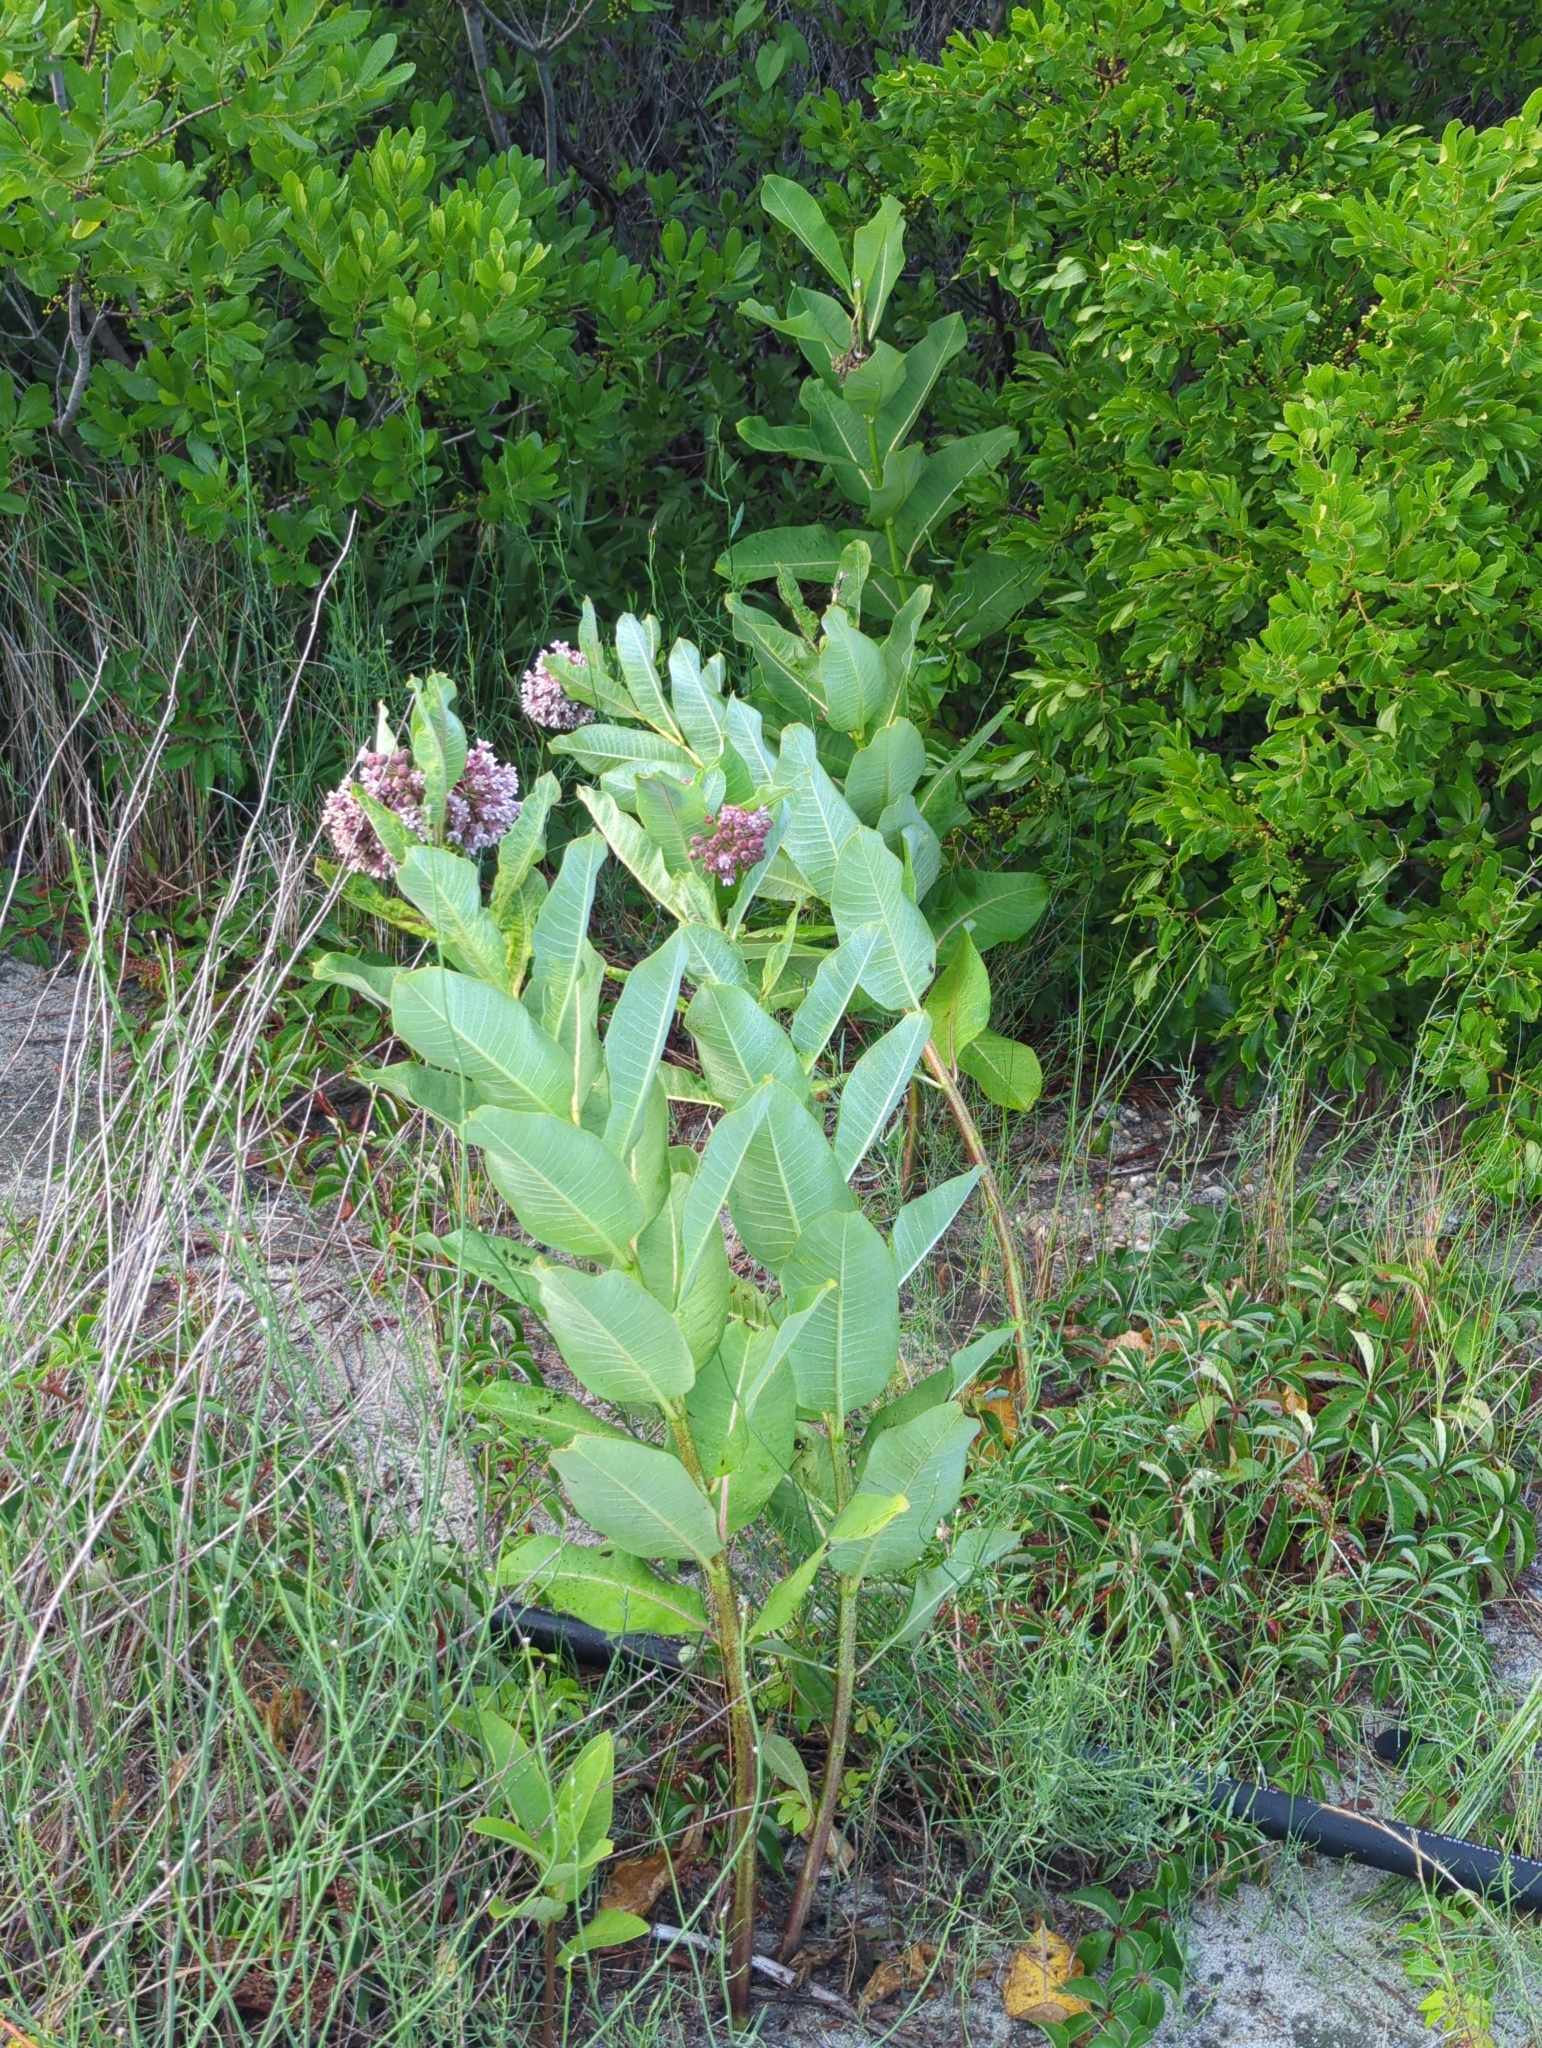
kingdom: Plantae
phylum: Tracheophyta
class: Magnoliopsida
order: Gentianales
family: Apocynaceae
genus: Asclepias
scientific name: Asclepias syriaca
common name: Common milkweed
